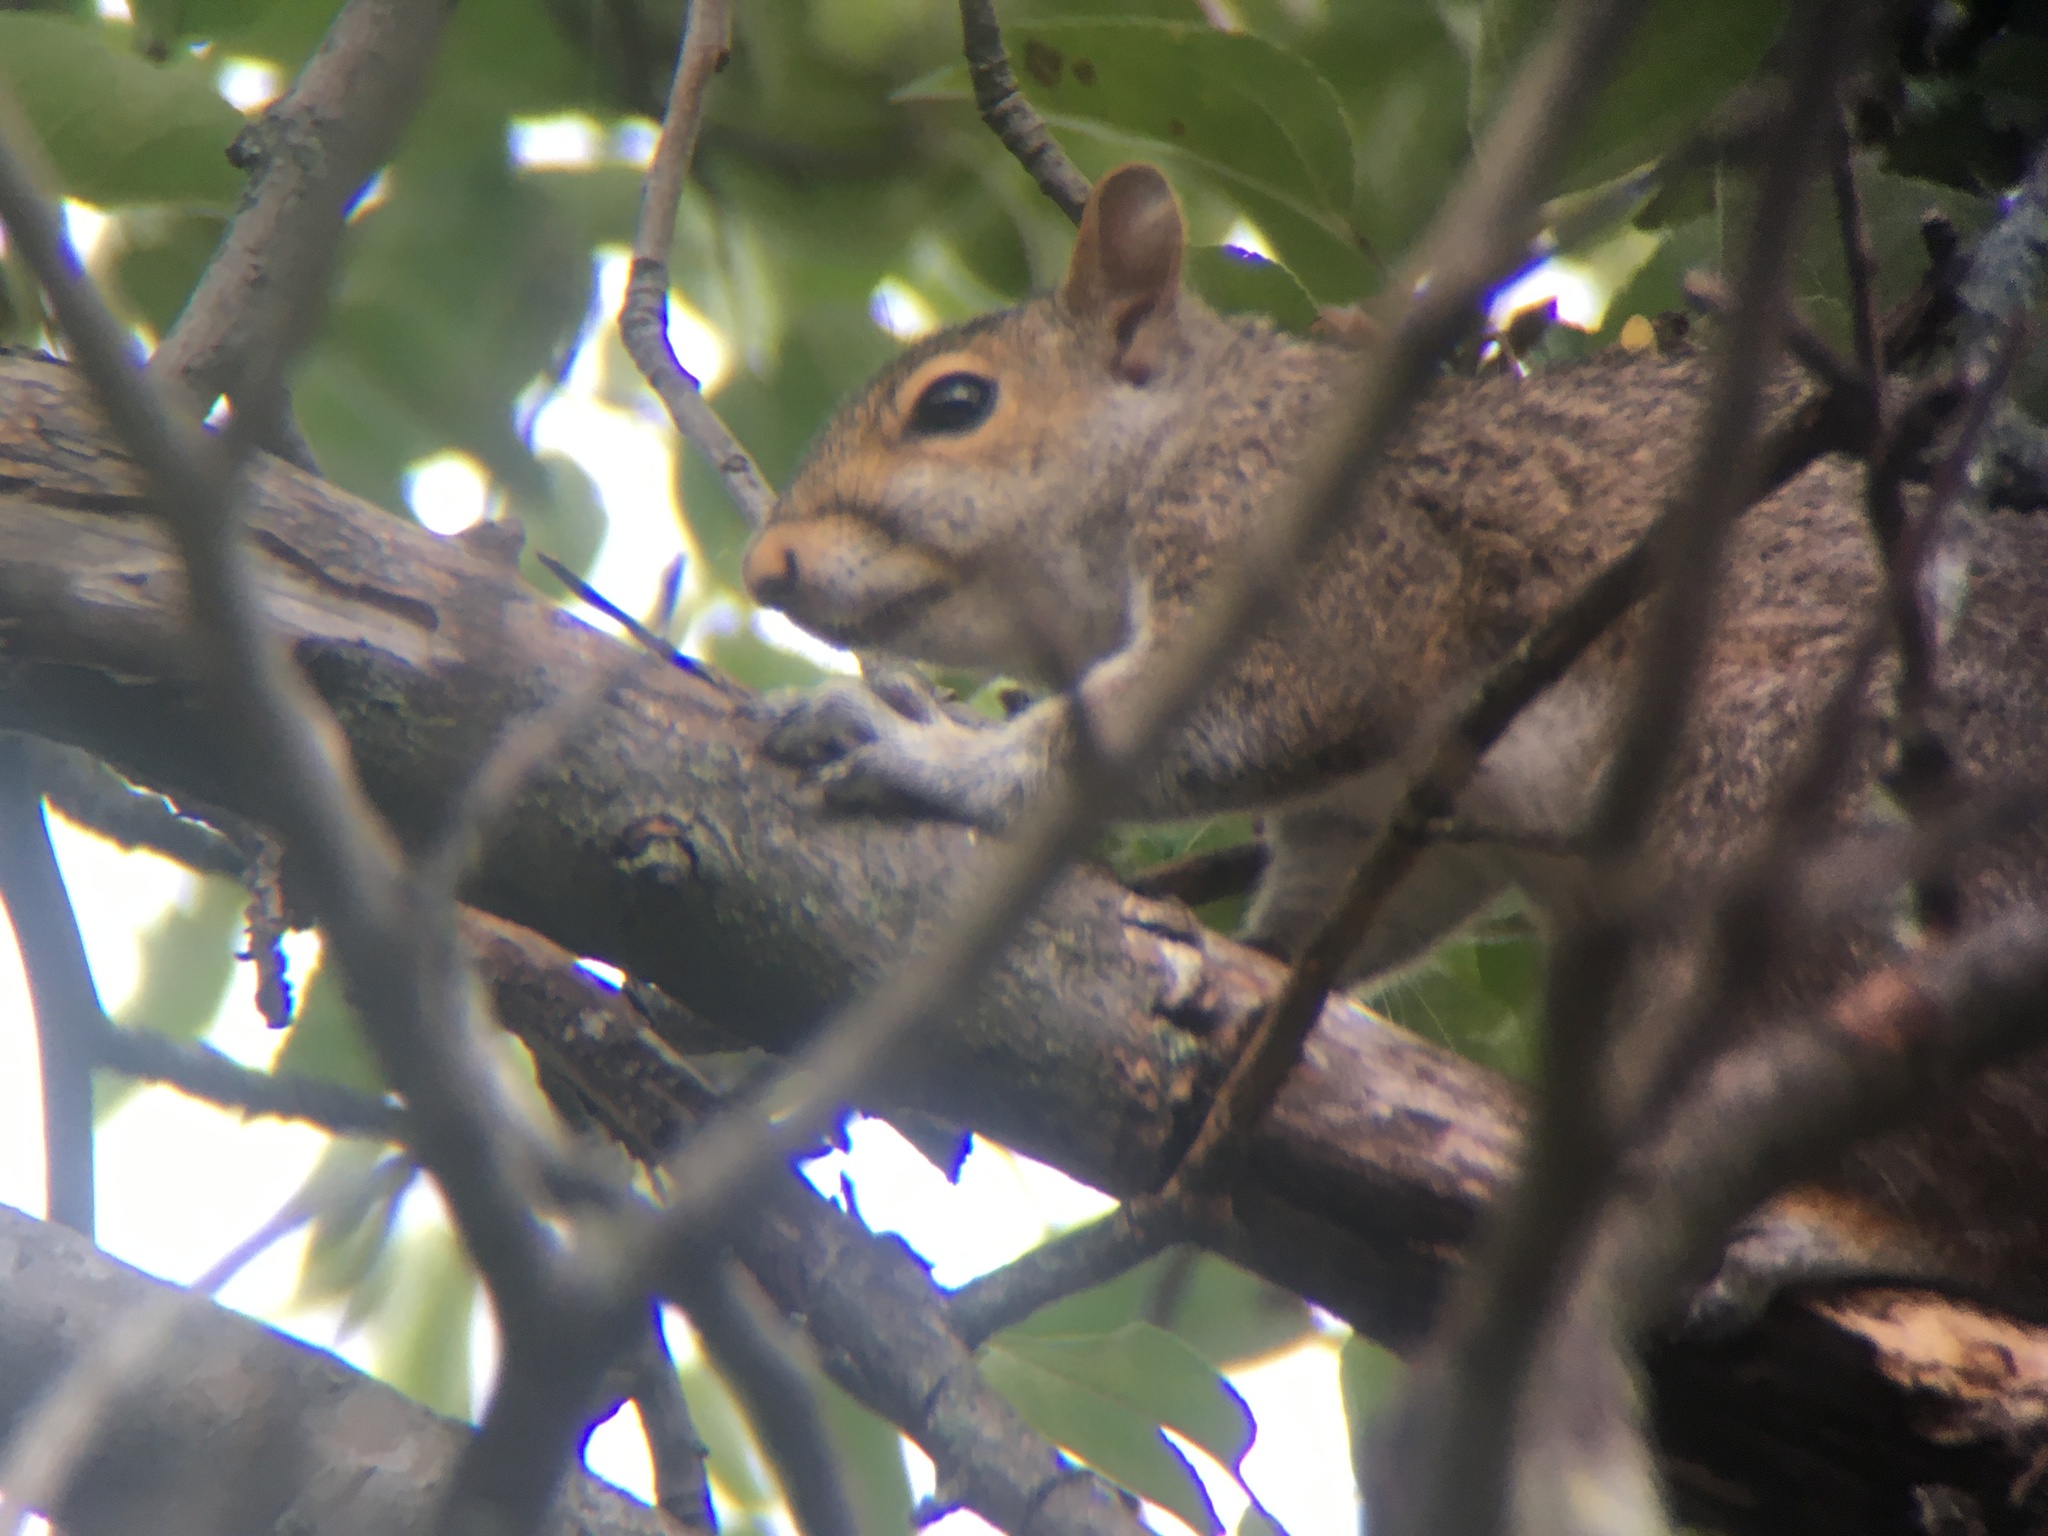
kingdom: Animalia
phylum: Chordata
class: Mammalia
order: Rodentia
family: Sciuridae
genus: Sciurus
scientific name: Sciurus carolinensis
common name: Eastern gray squirrel
